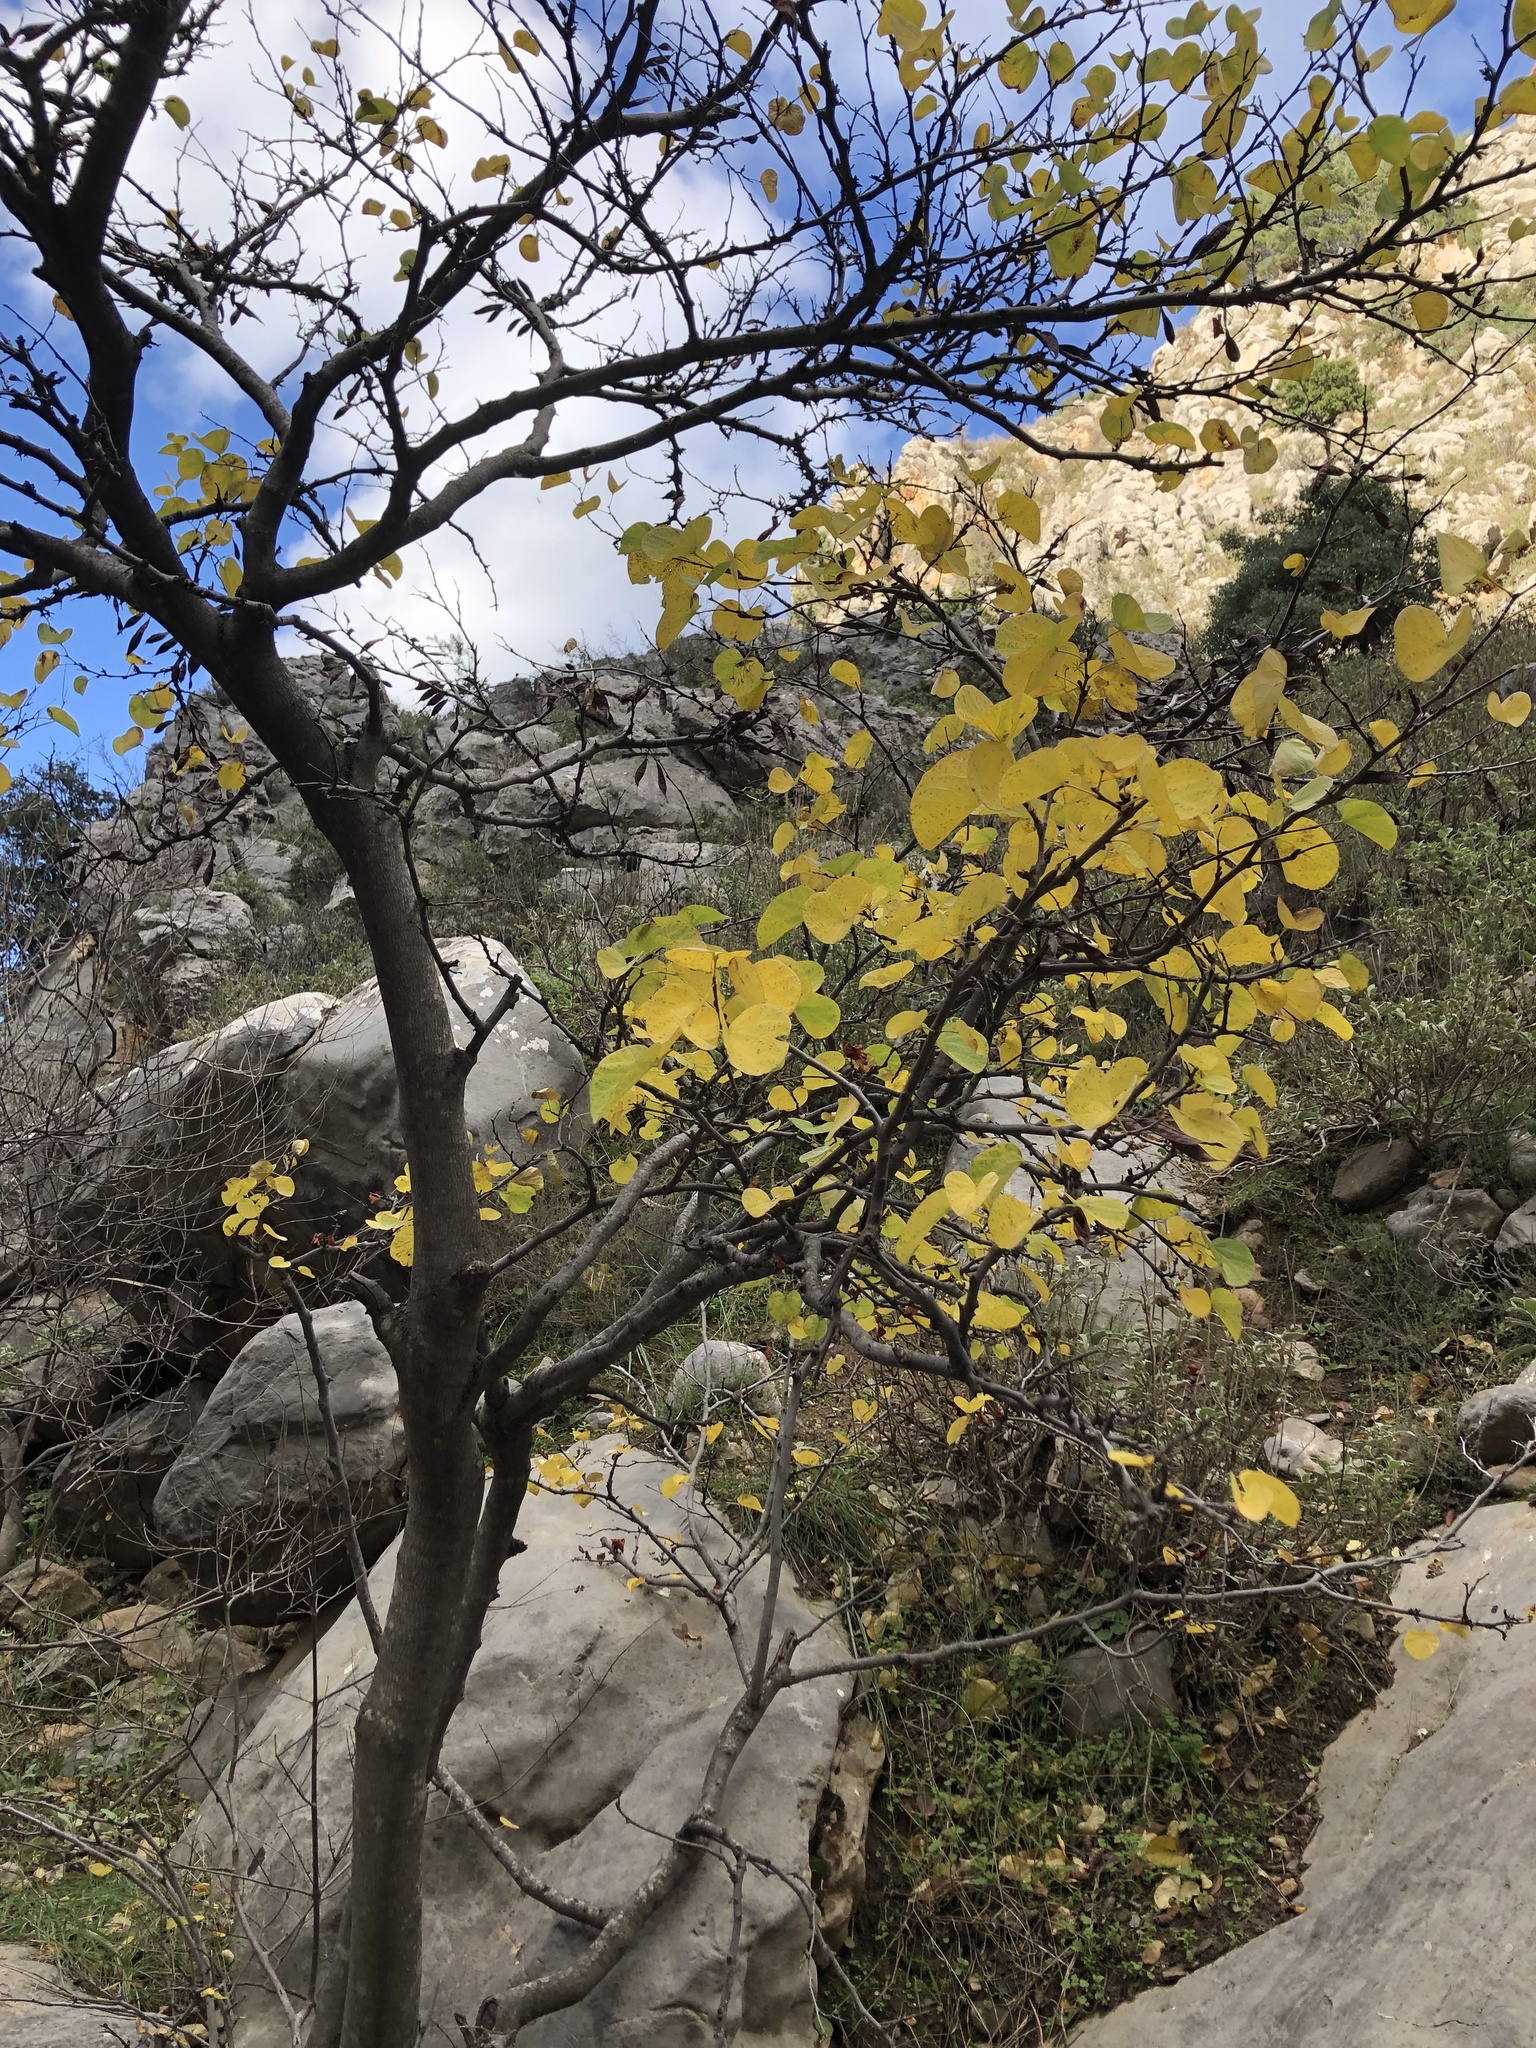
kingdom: Plantae
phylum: Tracheophyta
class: Magnoliopsida
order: Fabales
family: Fabaceae
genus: Cercis
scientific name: Cercis siliquastrum
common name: Judas tree
